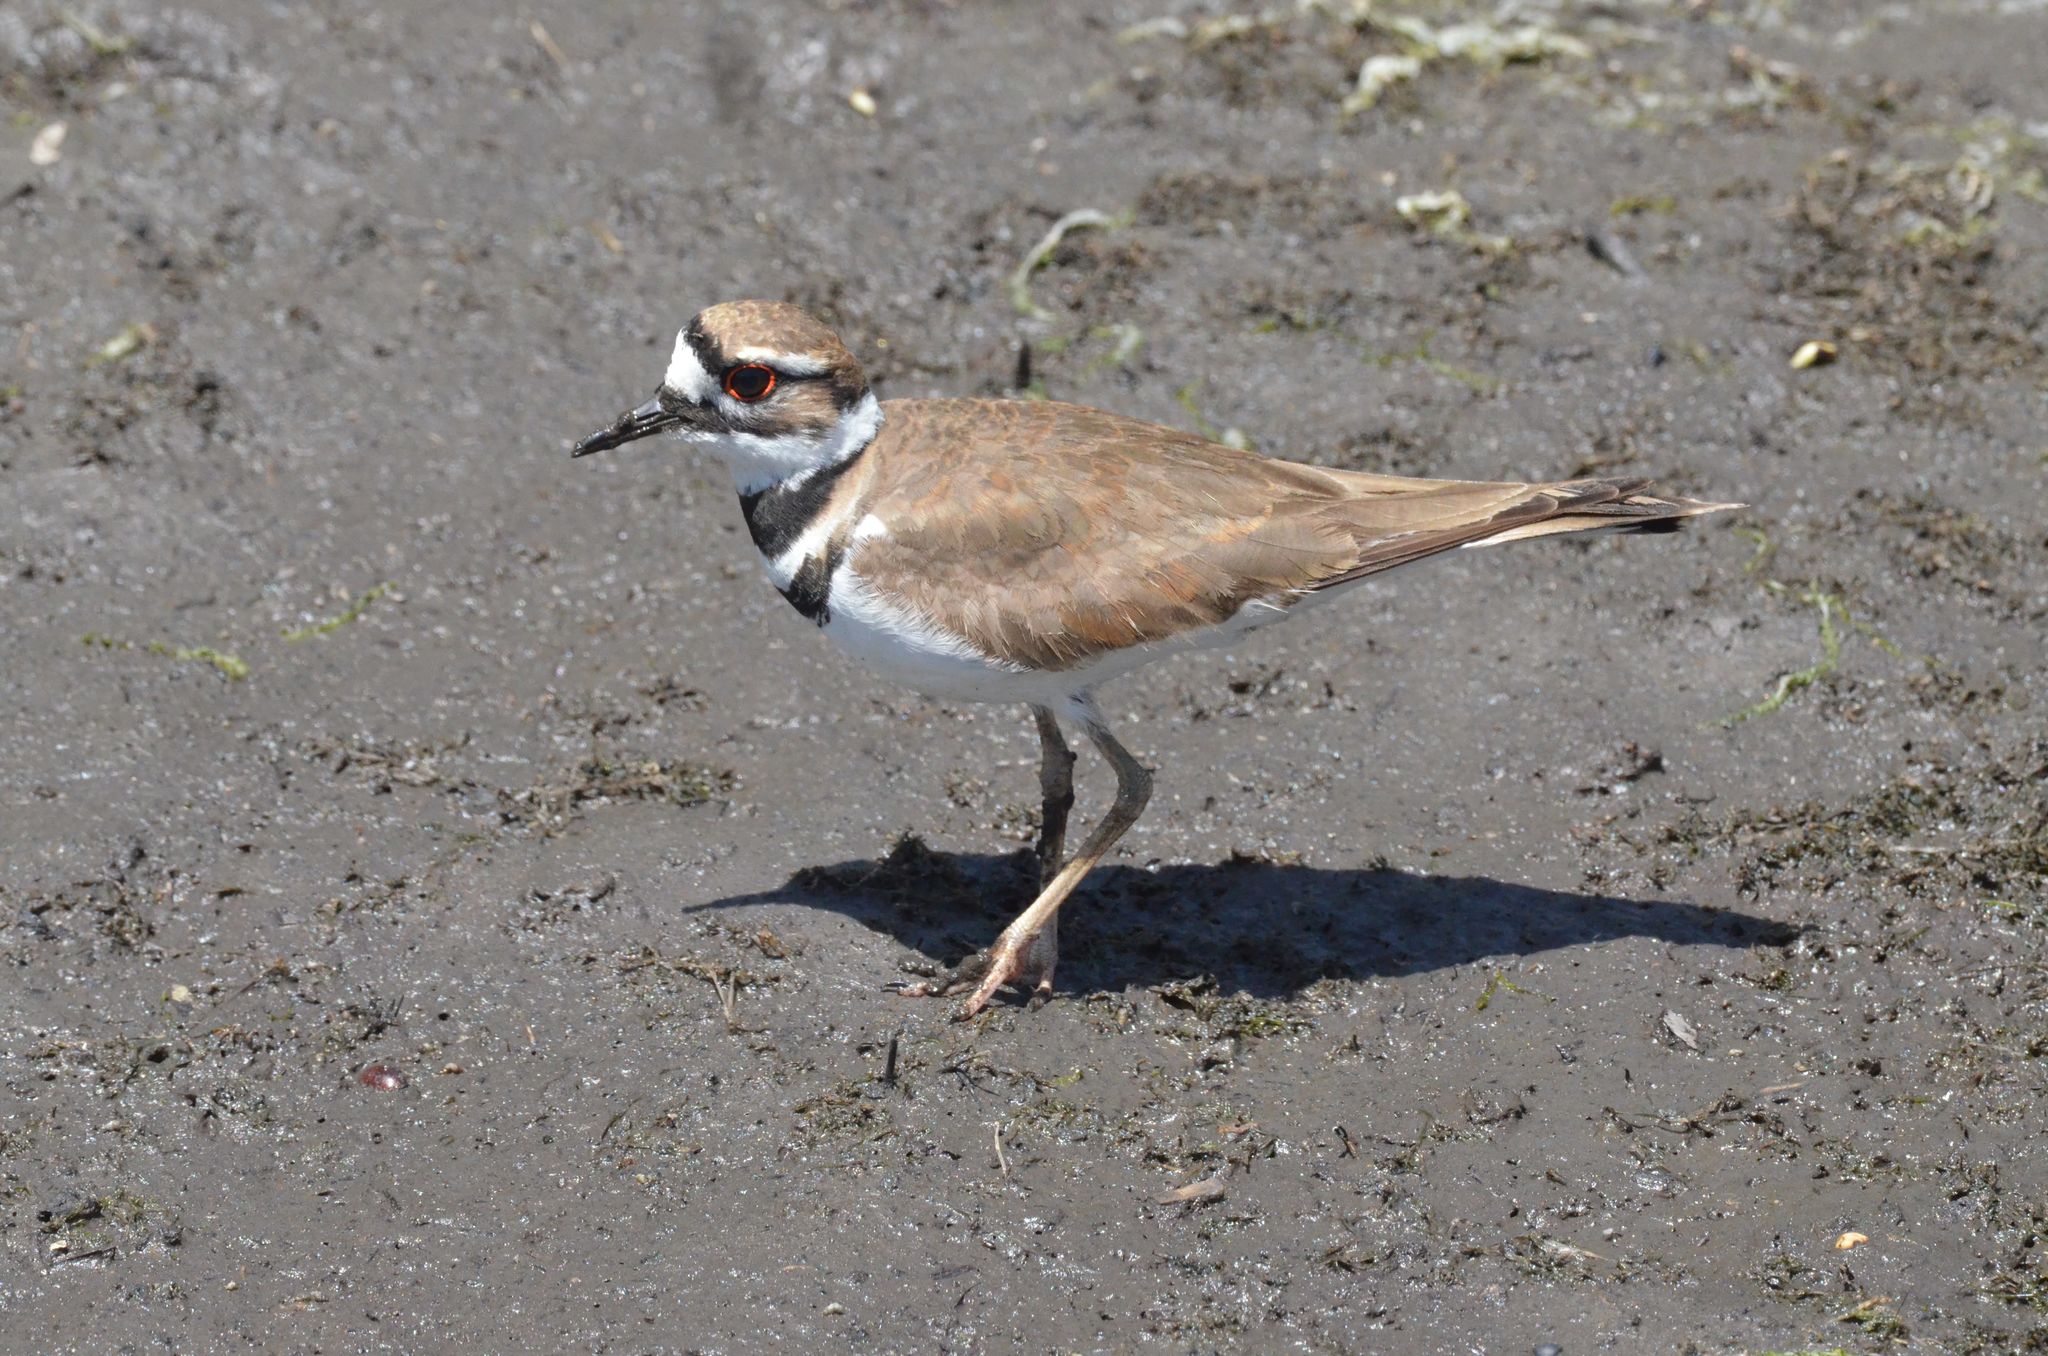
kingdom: Animalia
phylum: Chordata
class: Aves
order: Charadriiformes
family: Charadriidae
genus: Charadrius
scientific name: Charadrius vociferus
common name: Killdeer
